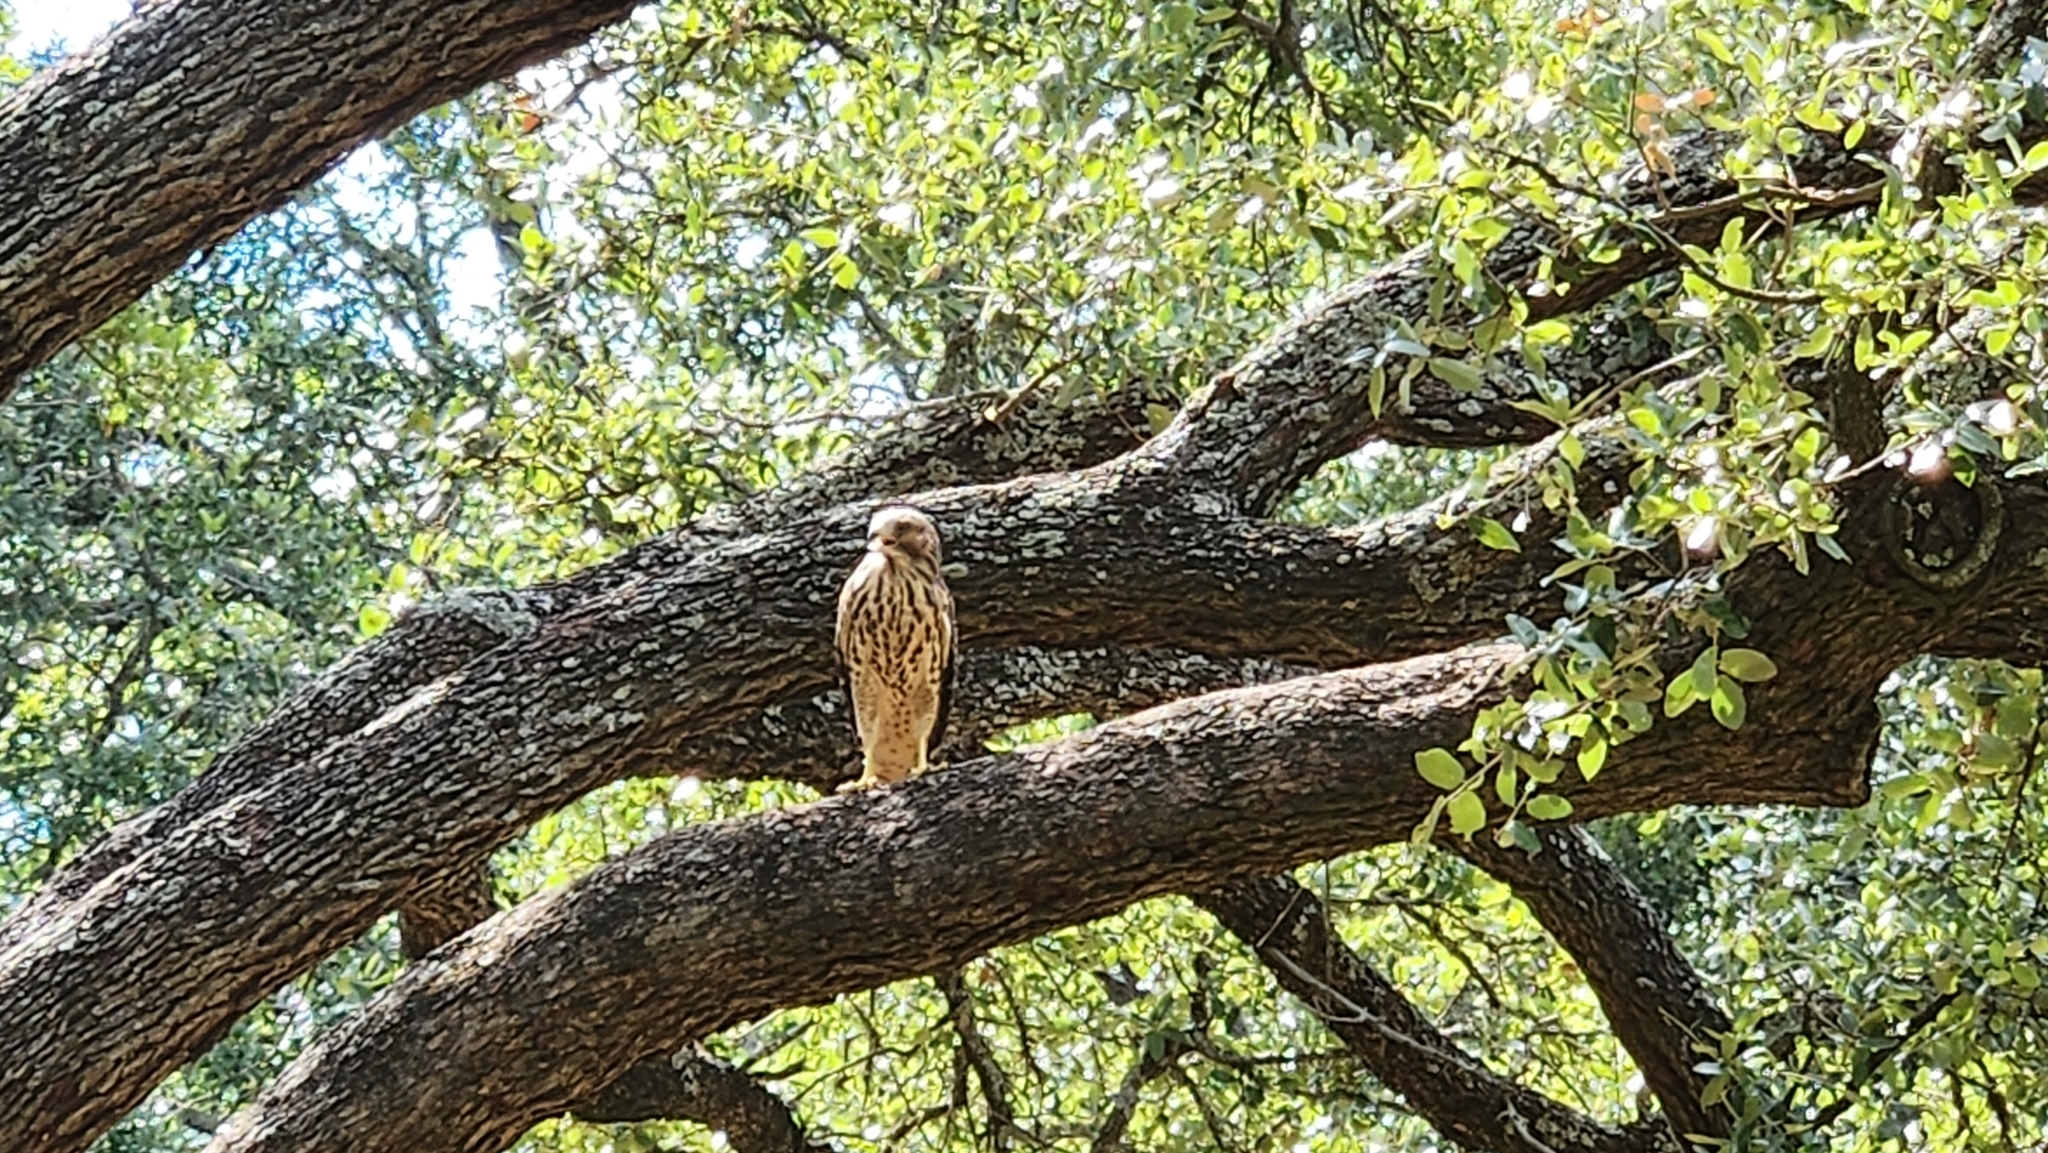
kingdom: Animalia
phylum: Chordata
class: Aves
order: Accipitriformes
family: Accipitridae
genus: Buteo
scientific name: Buteo lineatus
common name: Red-shouldered hawk
